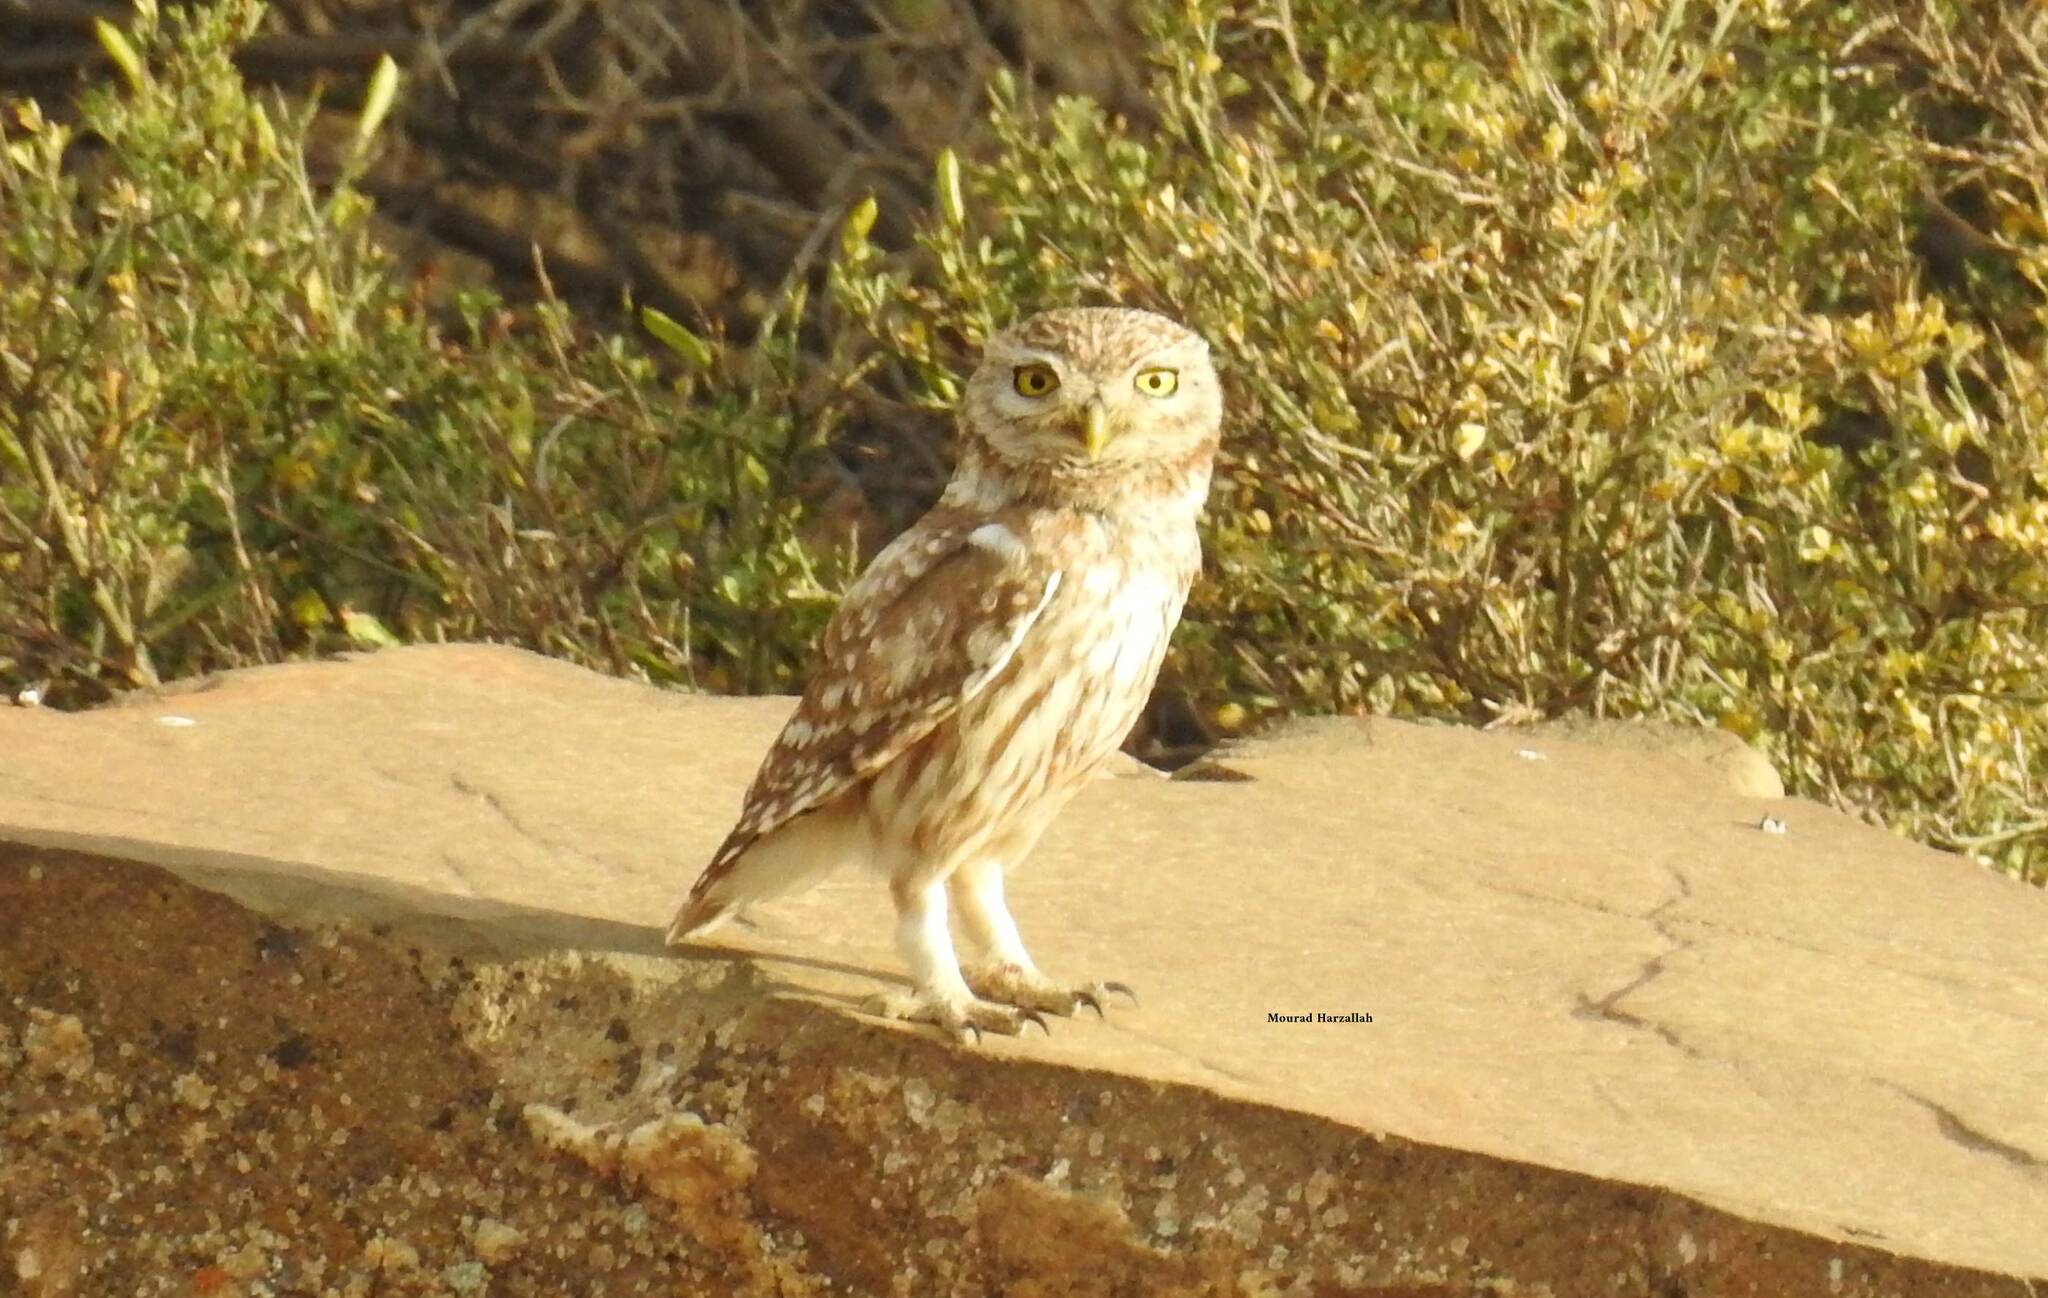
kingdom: Animalia
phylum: Chordata
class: Aves
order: Strigiformes
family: Strigidae
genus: Athene
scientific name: Athene noctua
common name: Little owl
